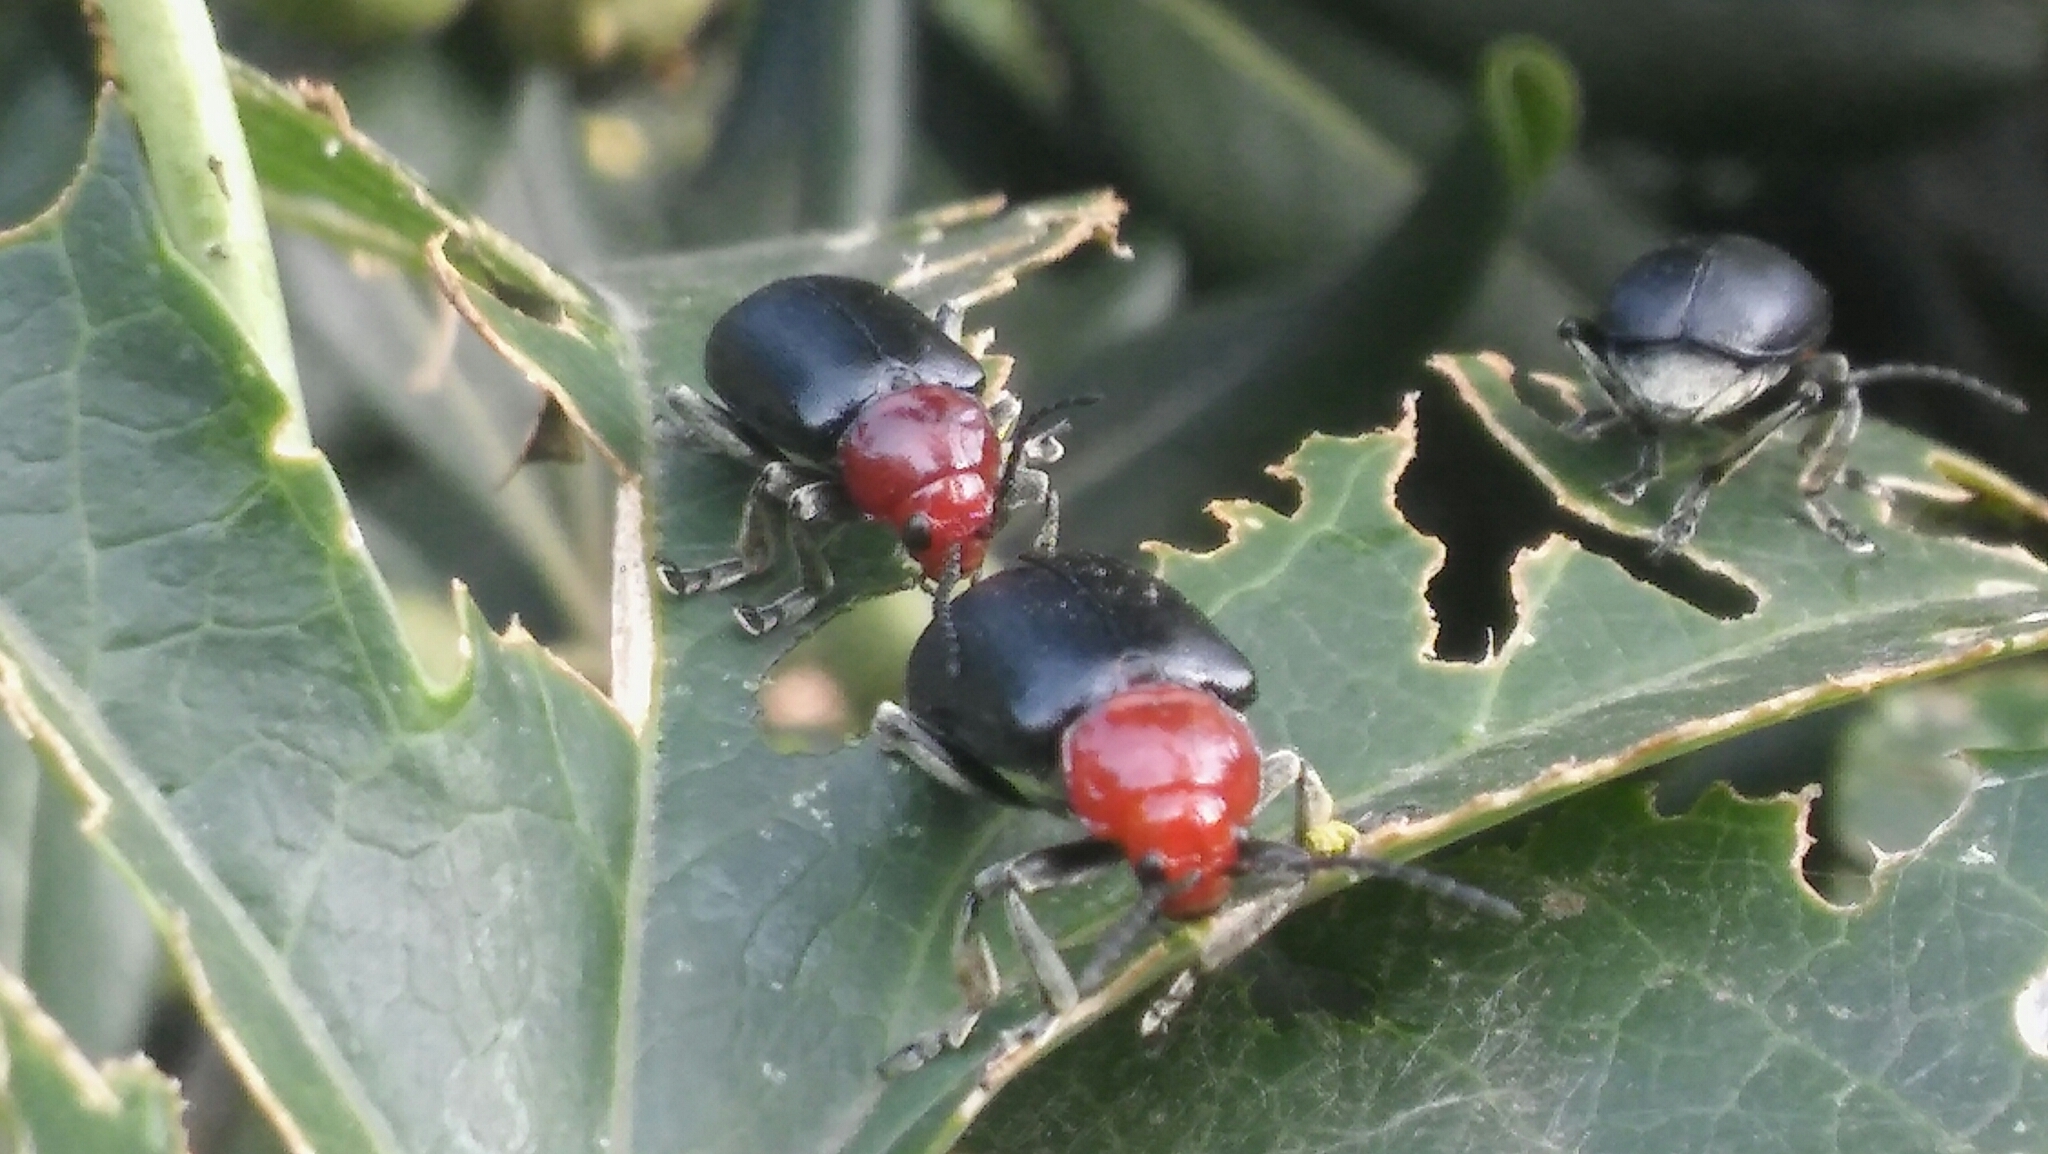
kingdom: Animalia
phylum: Arthropoda
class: Insecta
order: Coleoptera
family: Chrysomelidae
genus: Cacoscelis
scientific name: Cacoscelis
